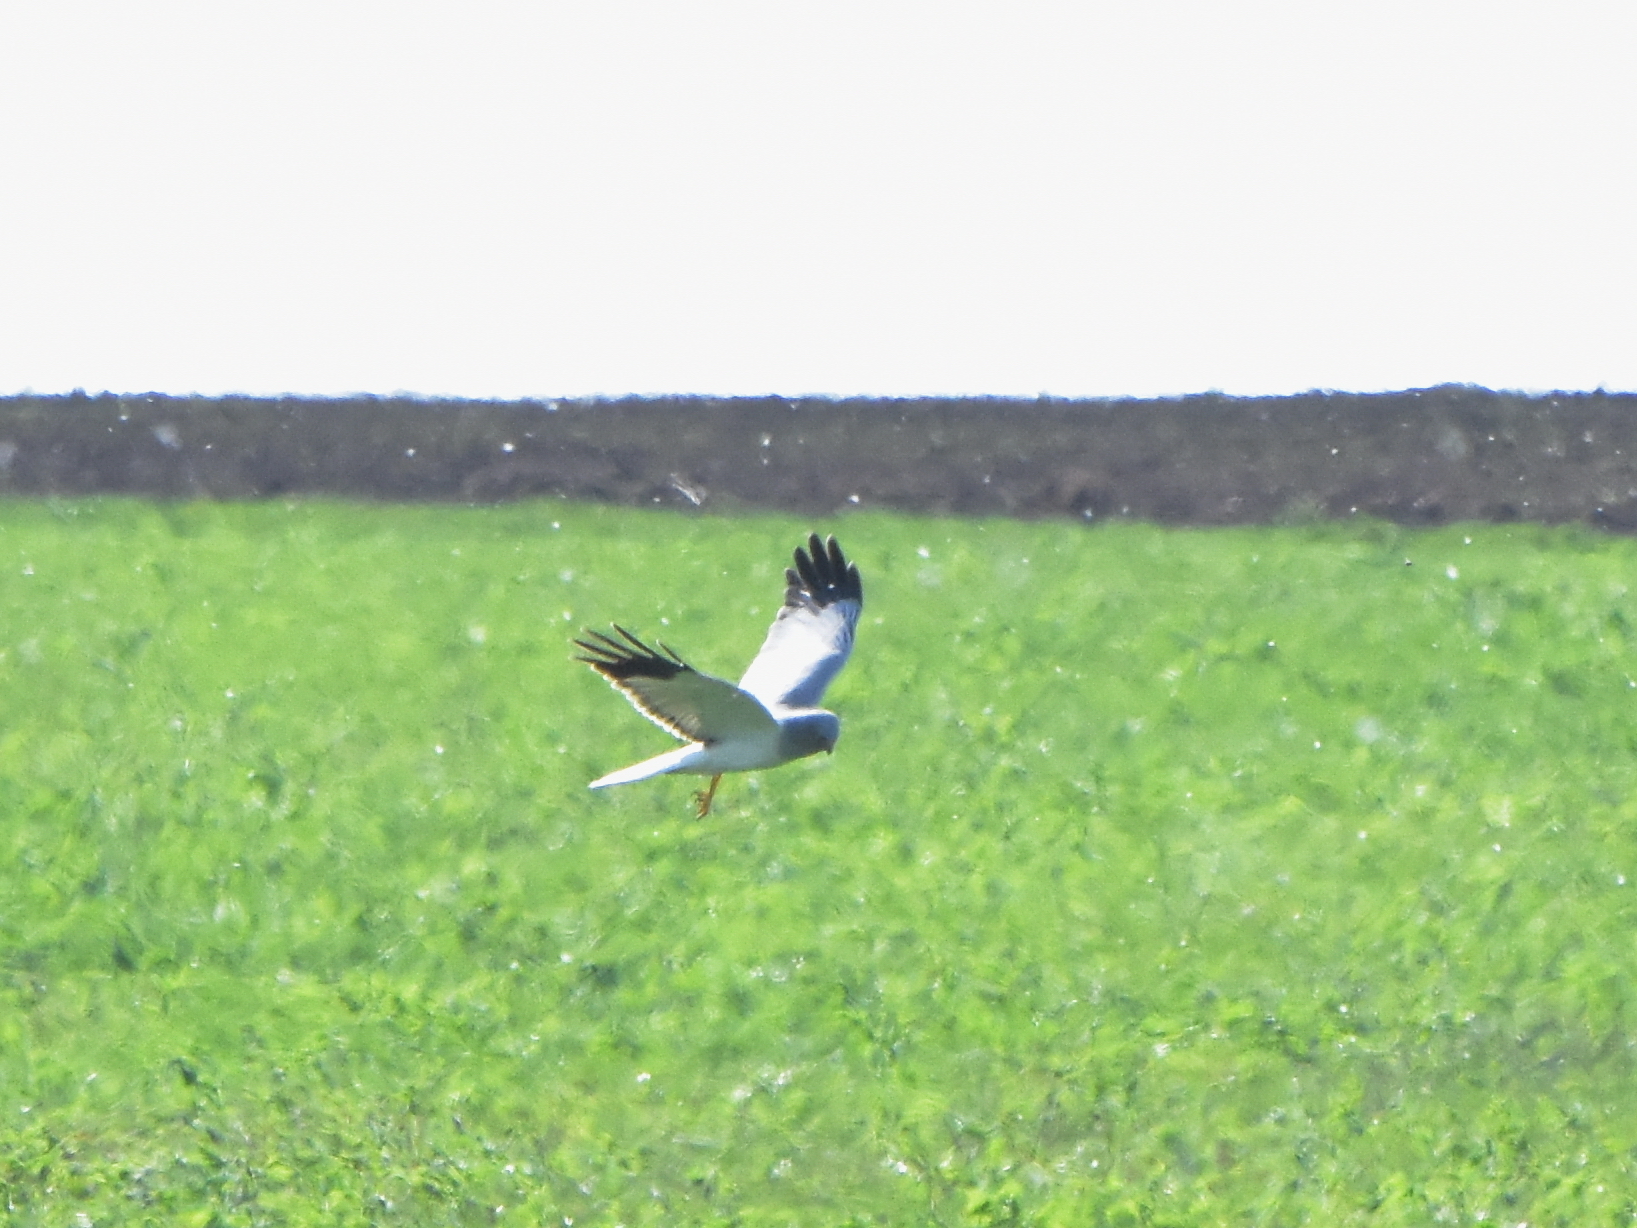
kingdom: Animalia
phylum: Chordata
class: Aves
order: Accipitriformes
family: Accipitridae
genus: Circus
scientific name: Circus cyaneus
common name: Hen harrier
